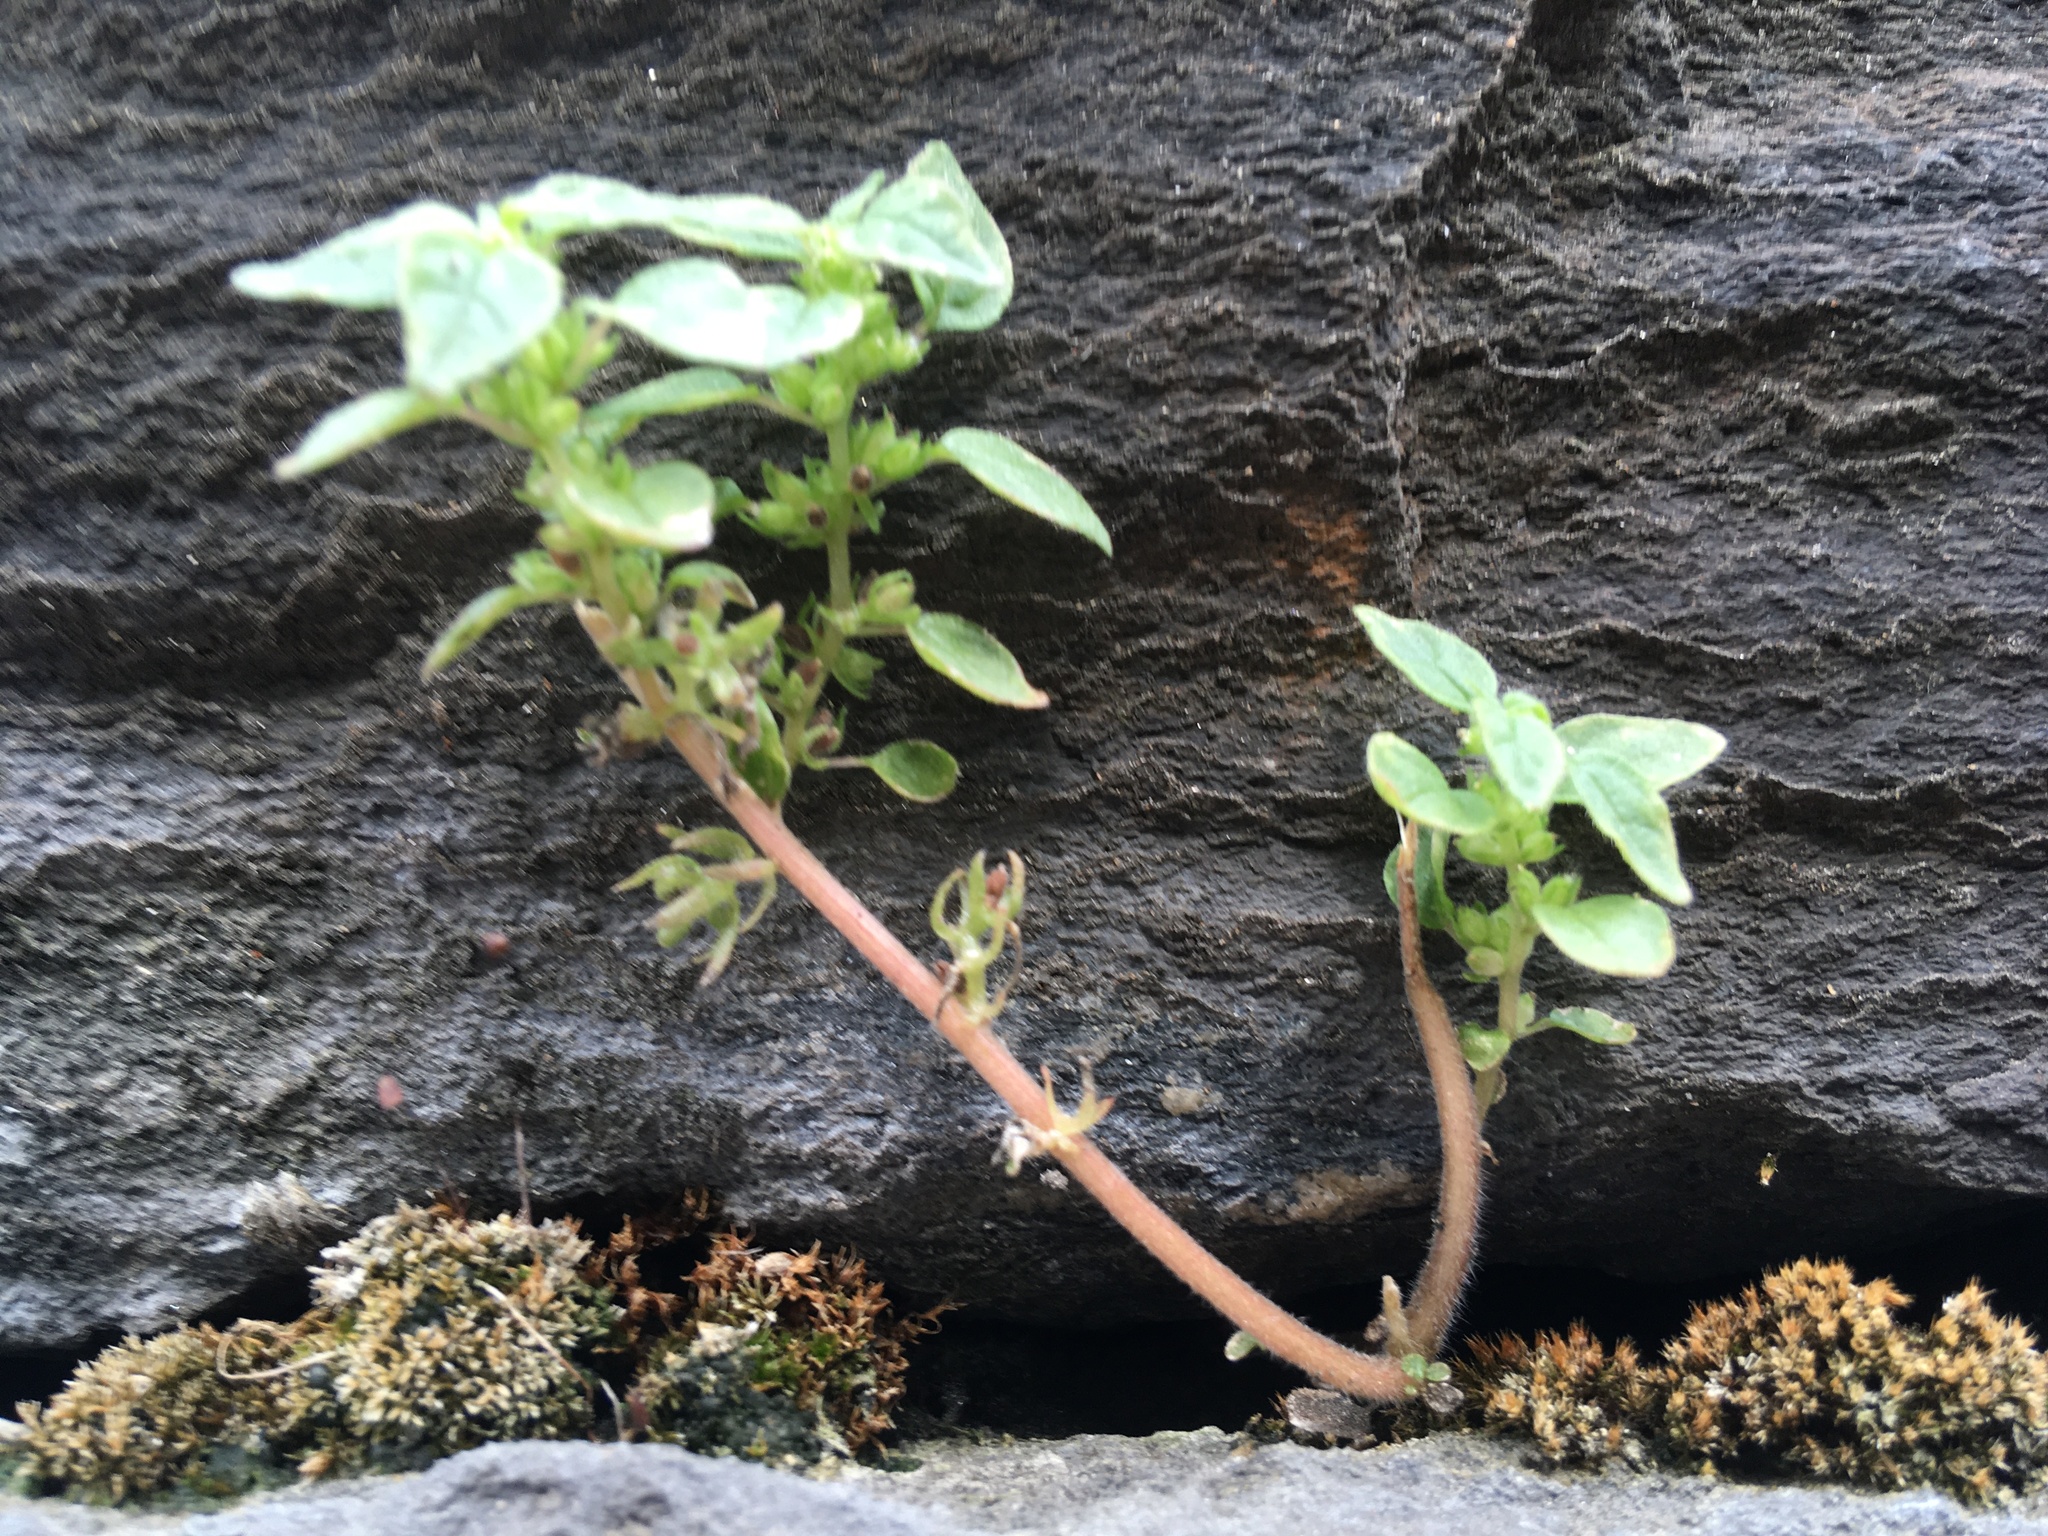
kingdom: Plantae
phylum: Tracheophyta
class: Magnoliopsida
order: Rosales
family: Urticaceae
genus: Parietaria
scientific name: Parietaria pensylvanica
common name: Pennsylvania pellitory
